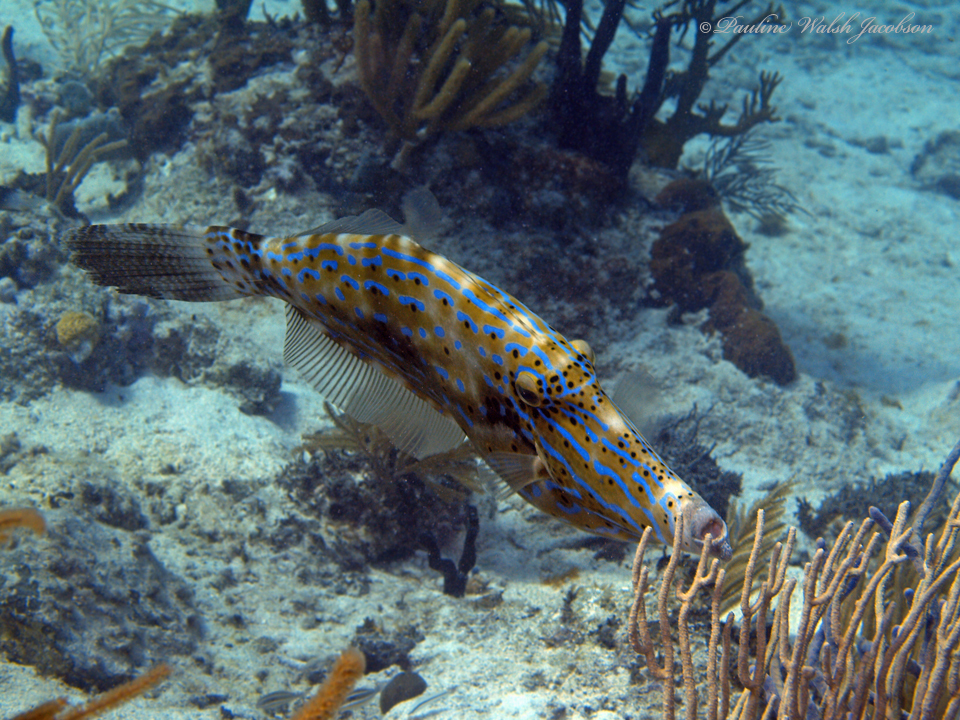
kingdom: Animalia
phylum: Chordata
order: Tetraodontiformes
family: Monacanthidae
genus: Aluterus
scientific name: Aluterus scriptus
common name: Scribbled leatherjacket filefish
